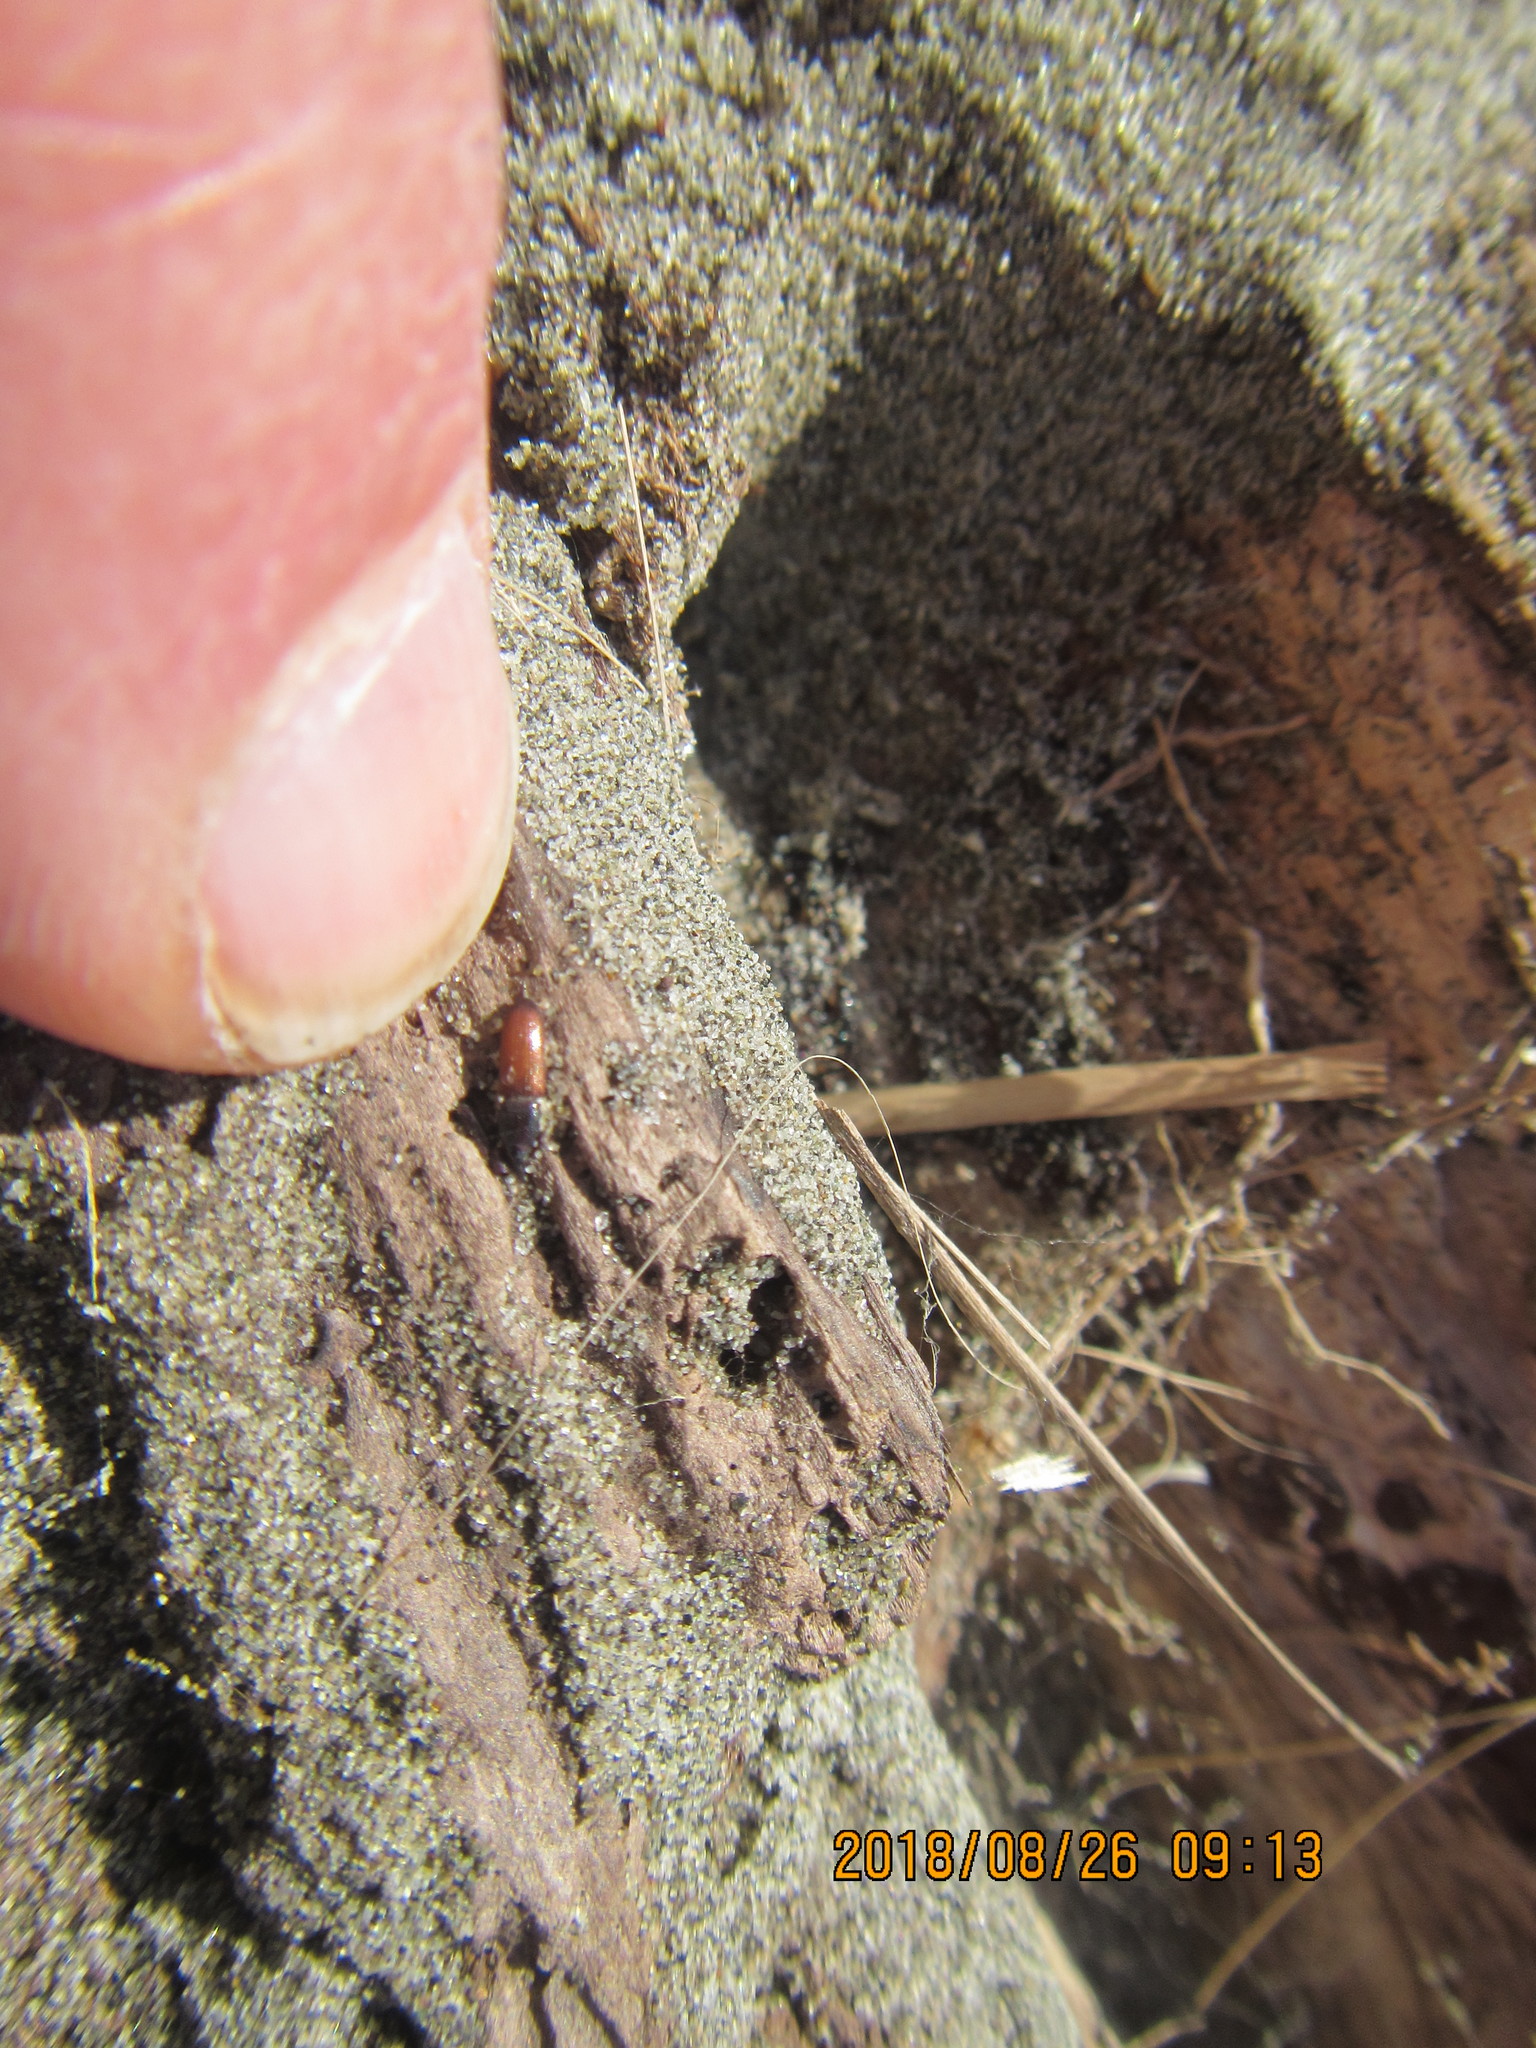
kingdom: Animalia
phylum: Arthropoda
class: Insecta
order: Coleoptera
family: Curculionidae
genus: Mesites
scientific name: Mesites pallidipennis
